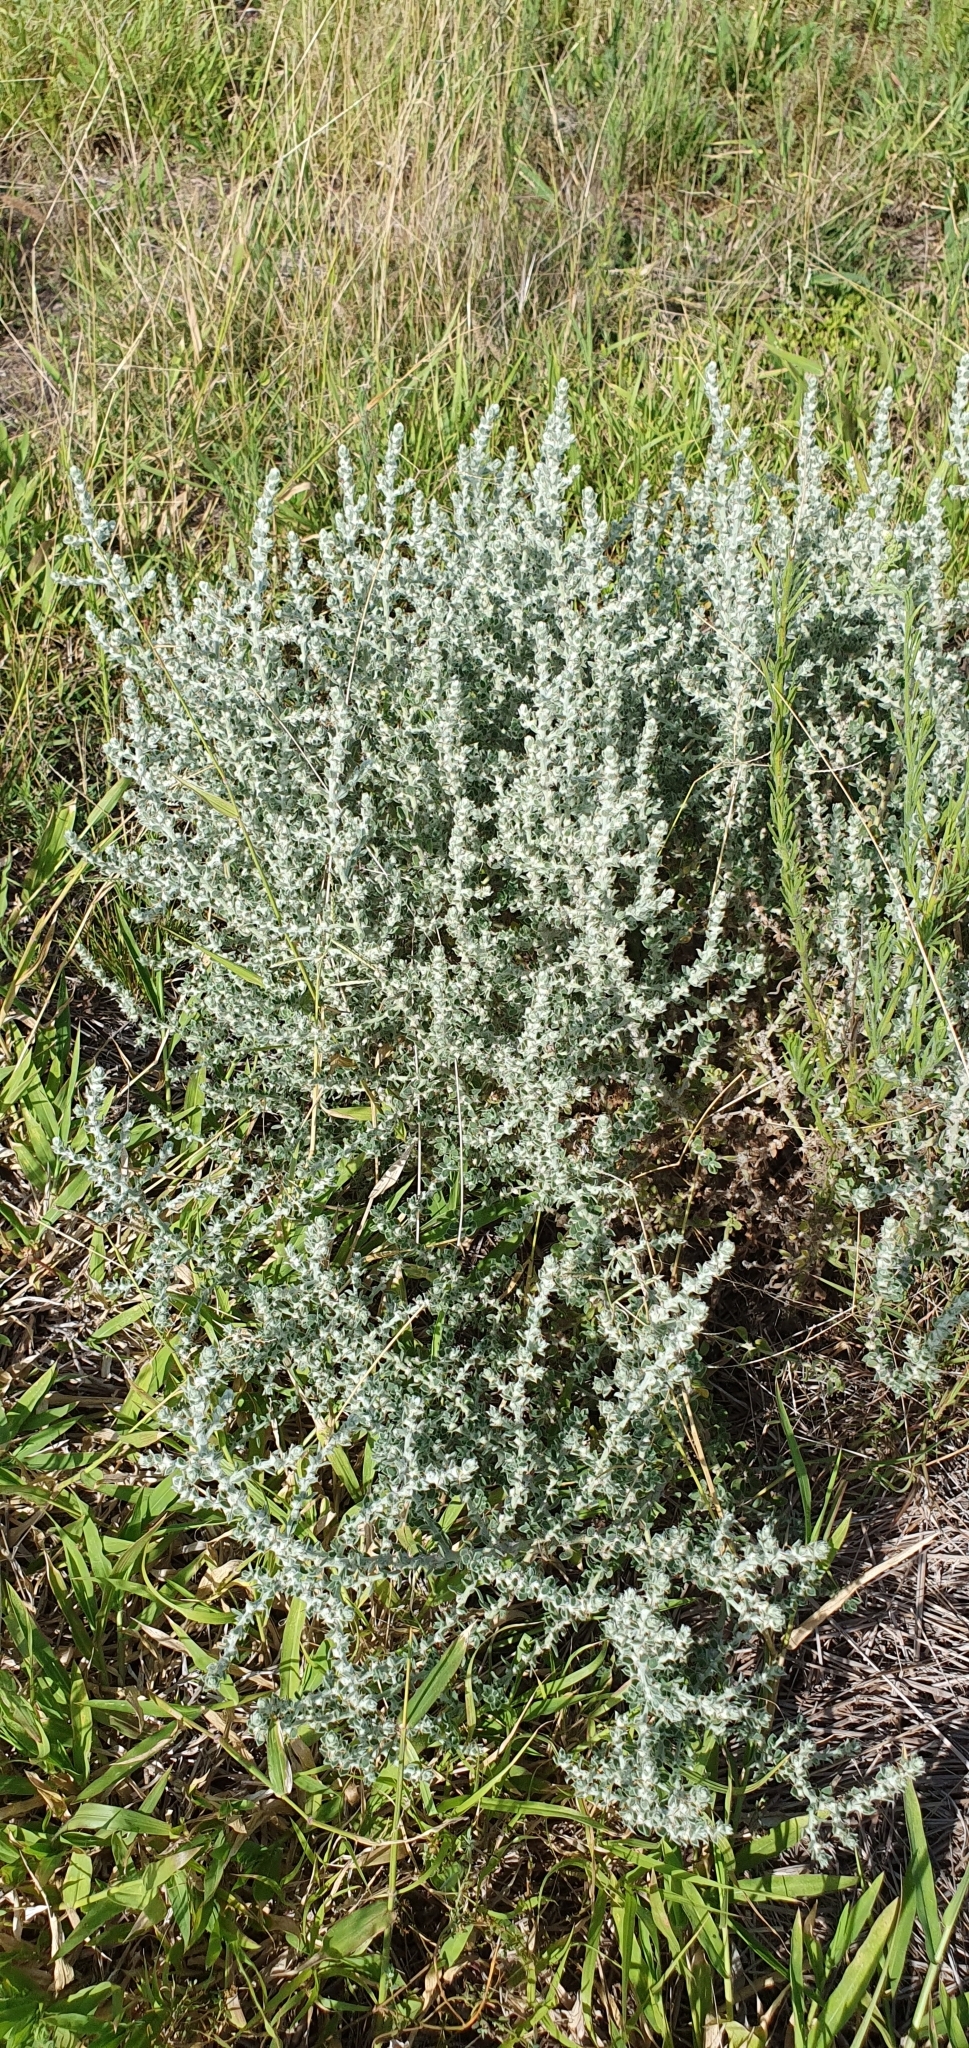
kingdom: Plantae
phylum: Tracheophyta
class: Magnoliopsida
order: Caryophyllales
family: Amaranthaceae
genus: Sclerolaena
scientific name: Sclerolaena birchii
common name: Galvanized bur
